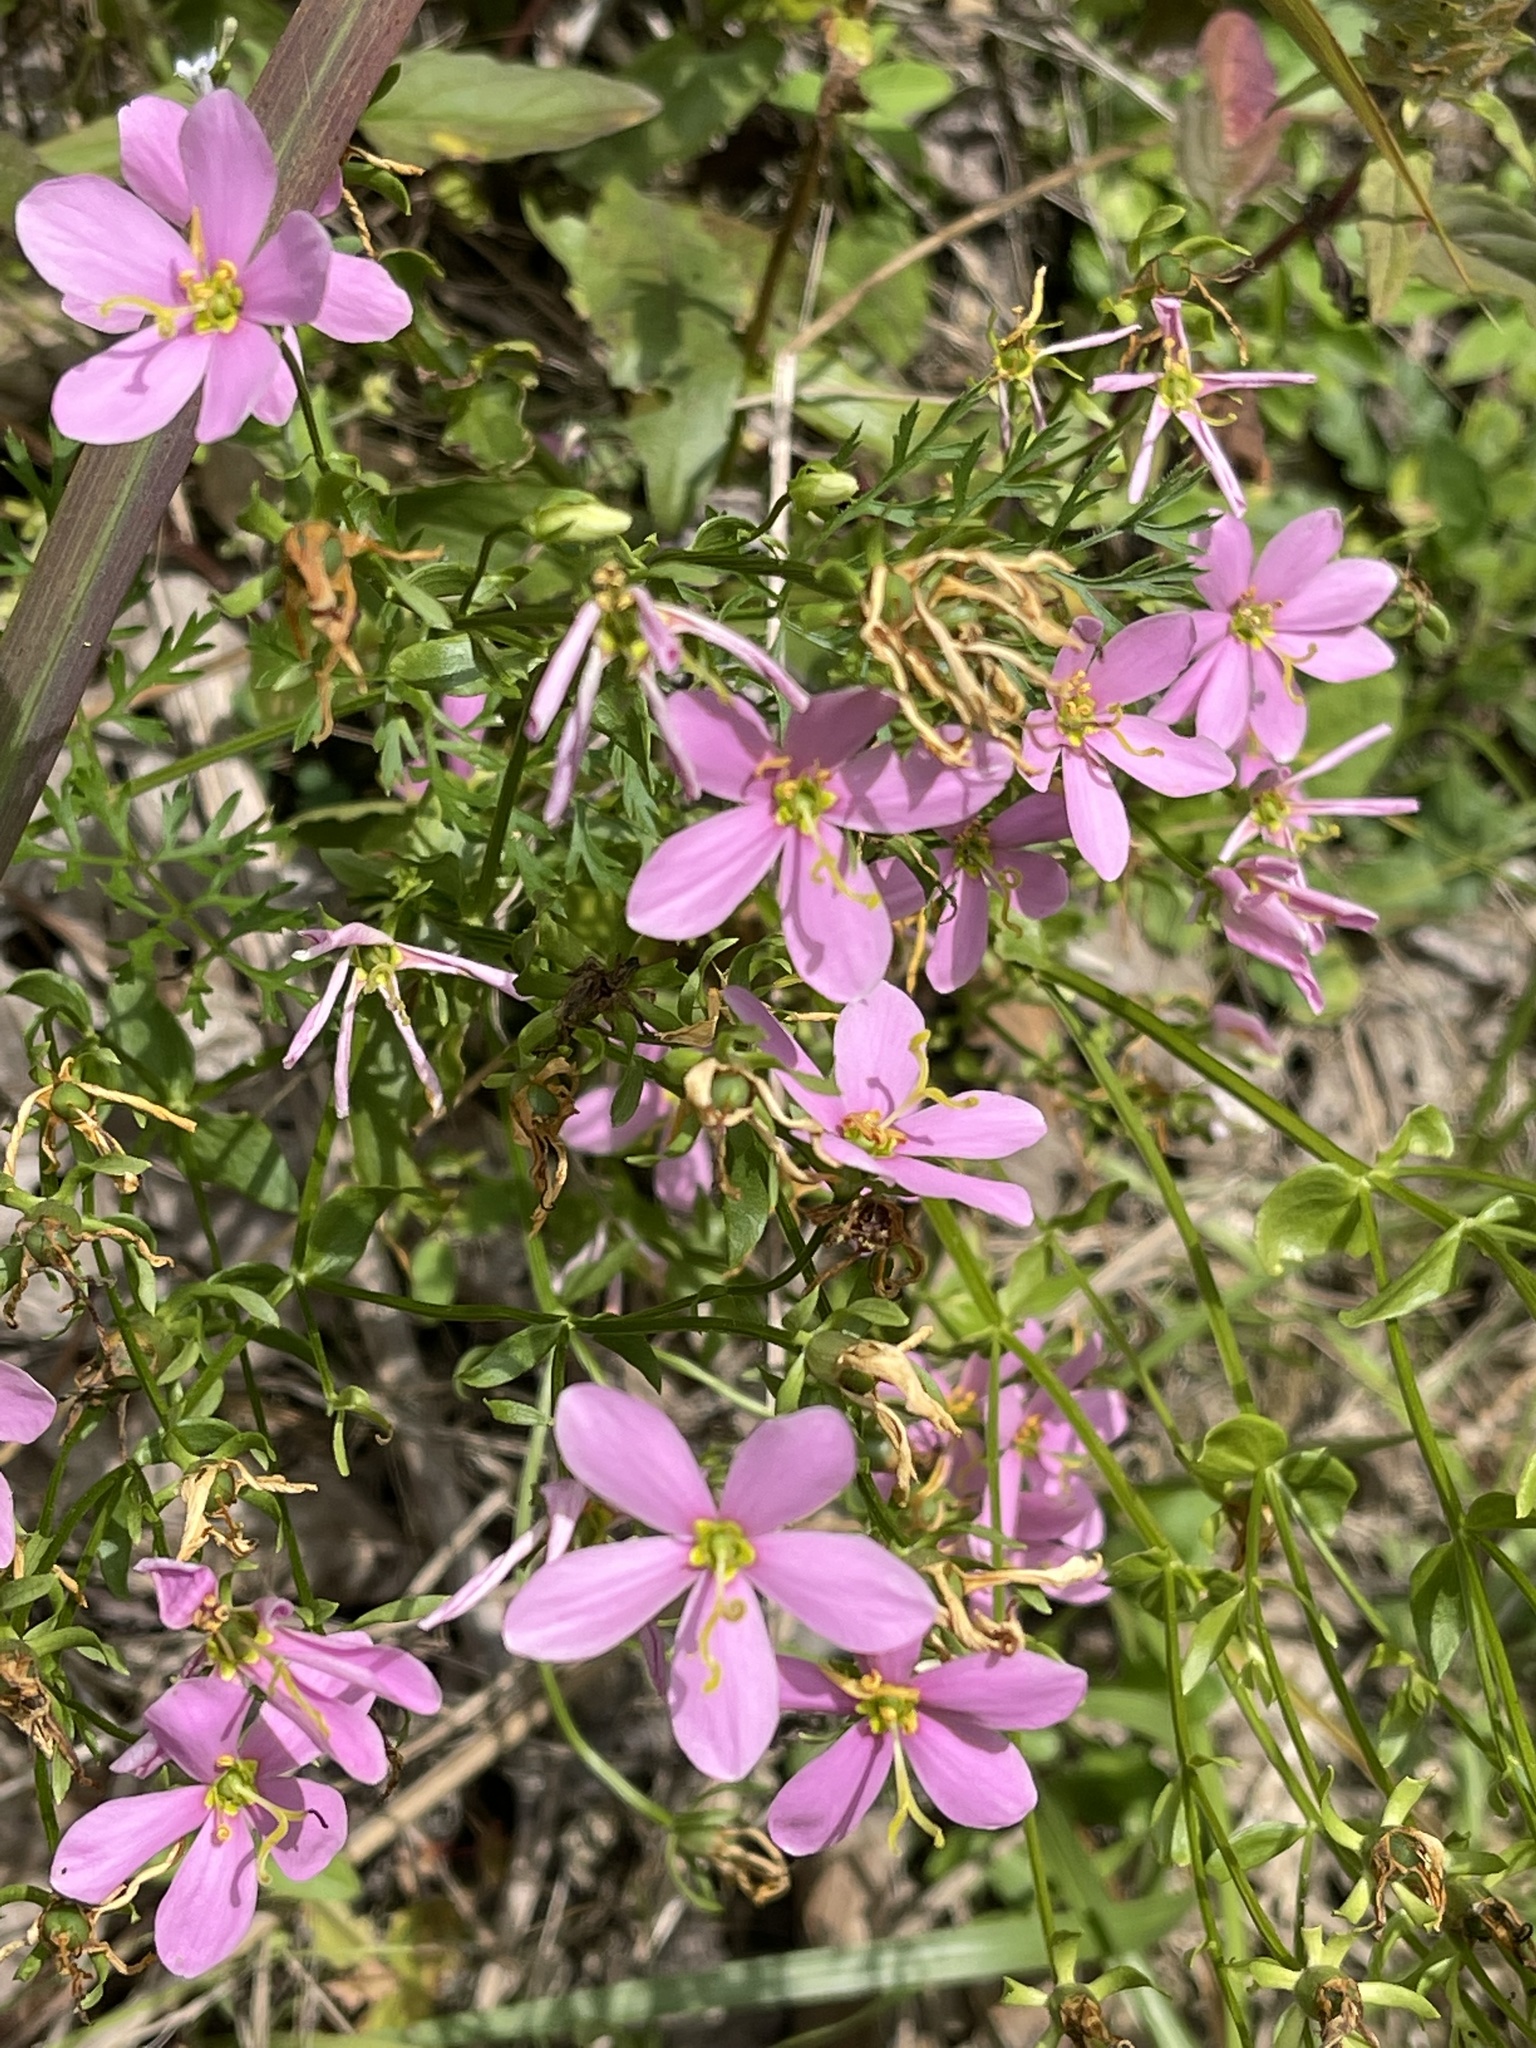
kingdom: Plantae
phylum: Tracheophyta
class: Magnoliopsida
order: Gentianales
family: Gentianaceae
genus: Sabatia
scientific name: Sabatia angularis
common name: Rose-pink
